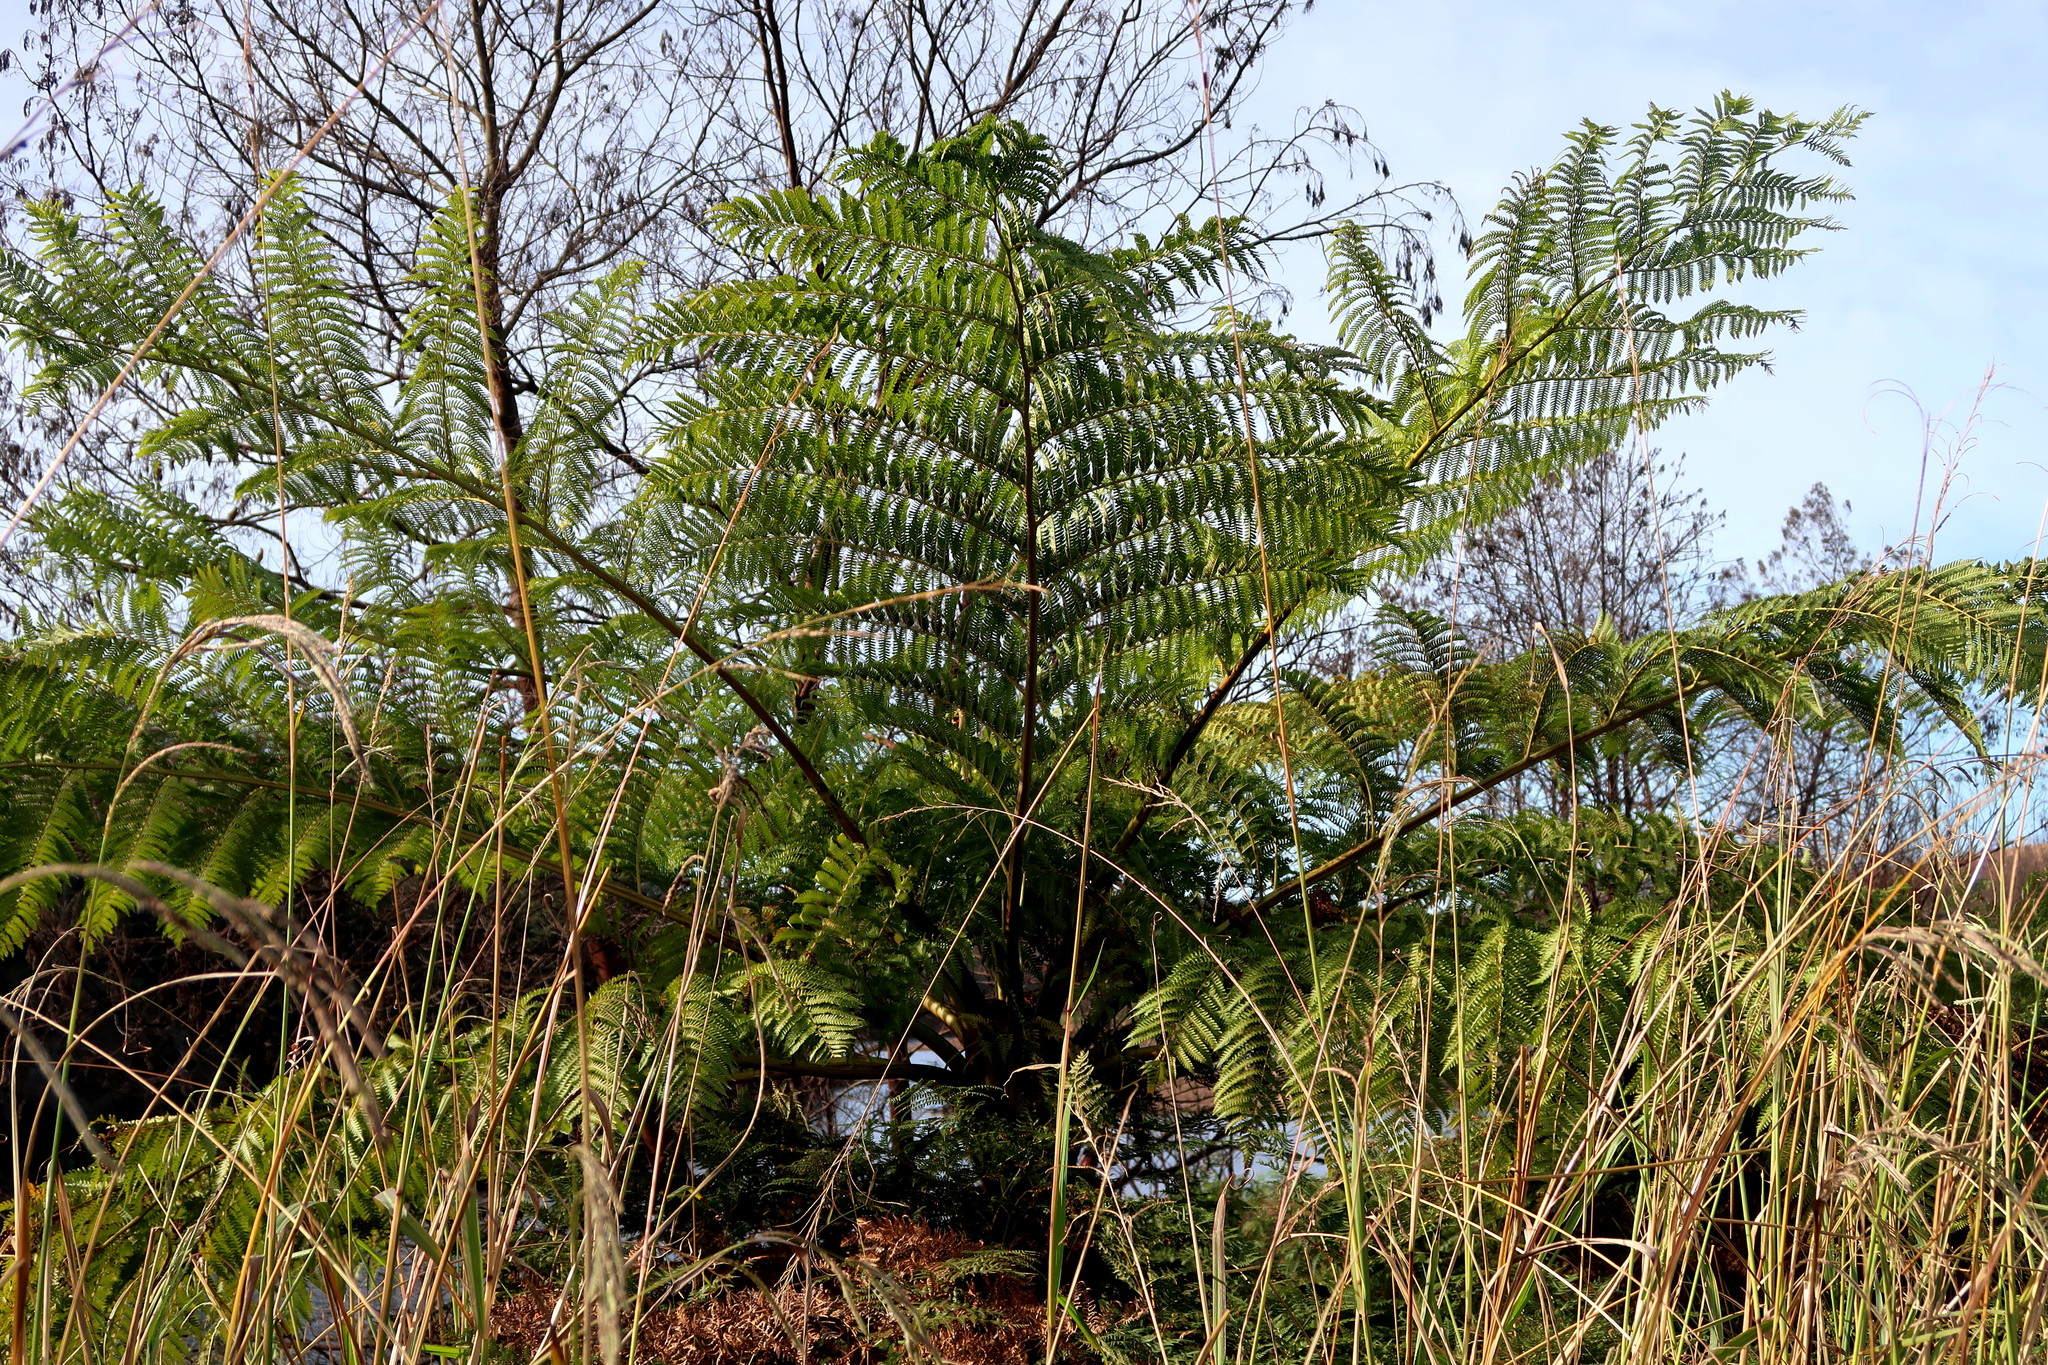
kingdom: Plantae
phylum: Tracheophyta
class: Polypodiopsida
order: Cyatheales
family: Cyatheaceae
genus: Sphaeropteris
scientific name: Sphaeropteris cooperi
